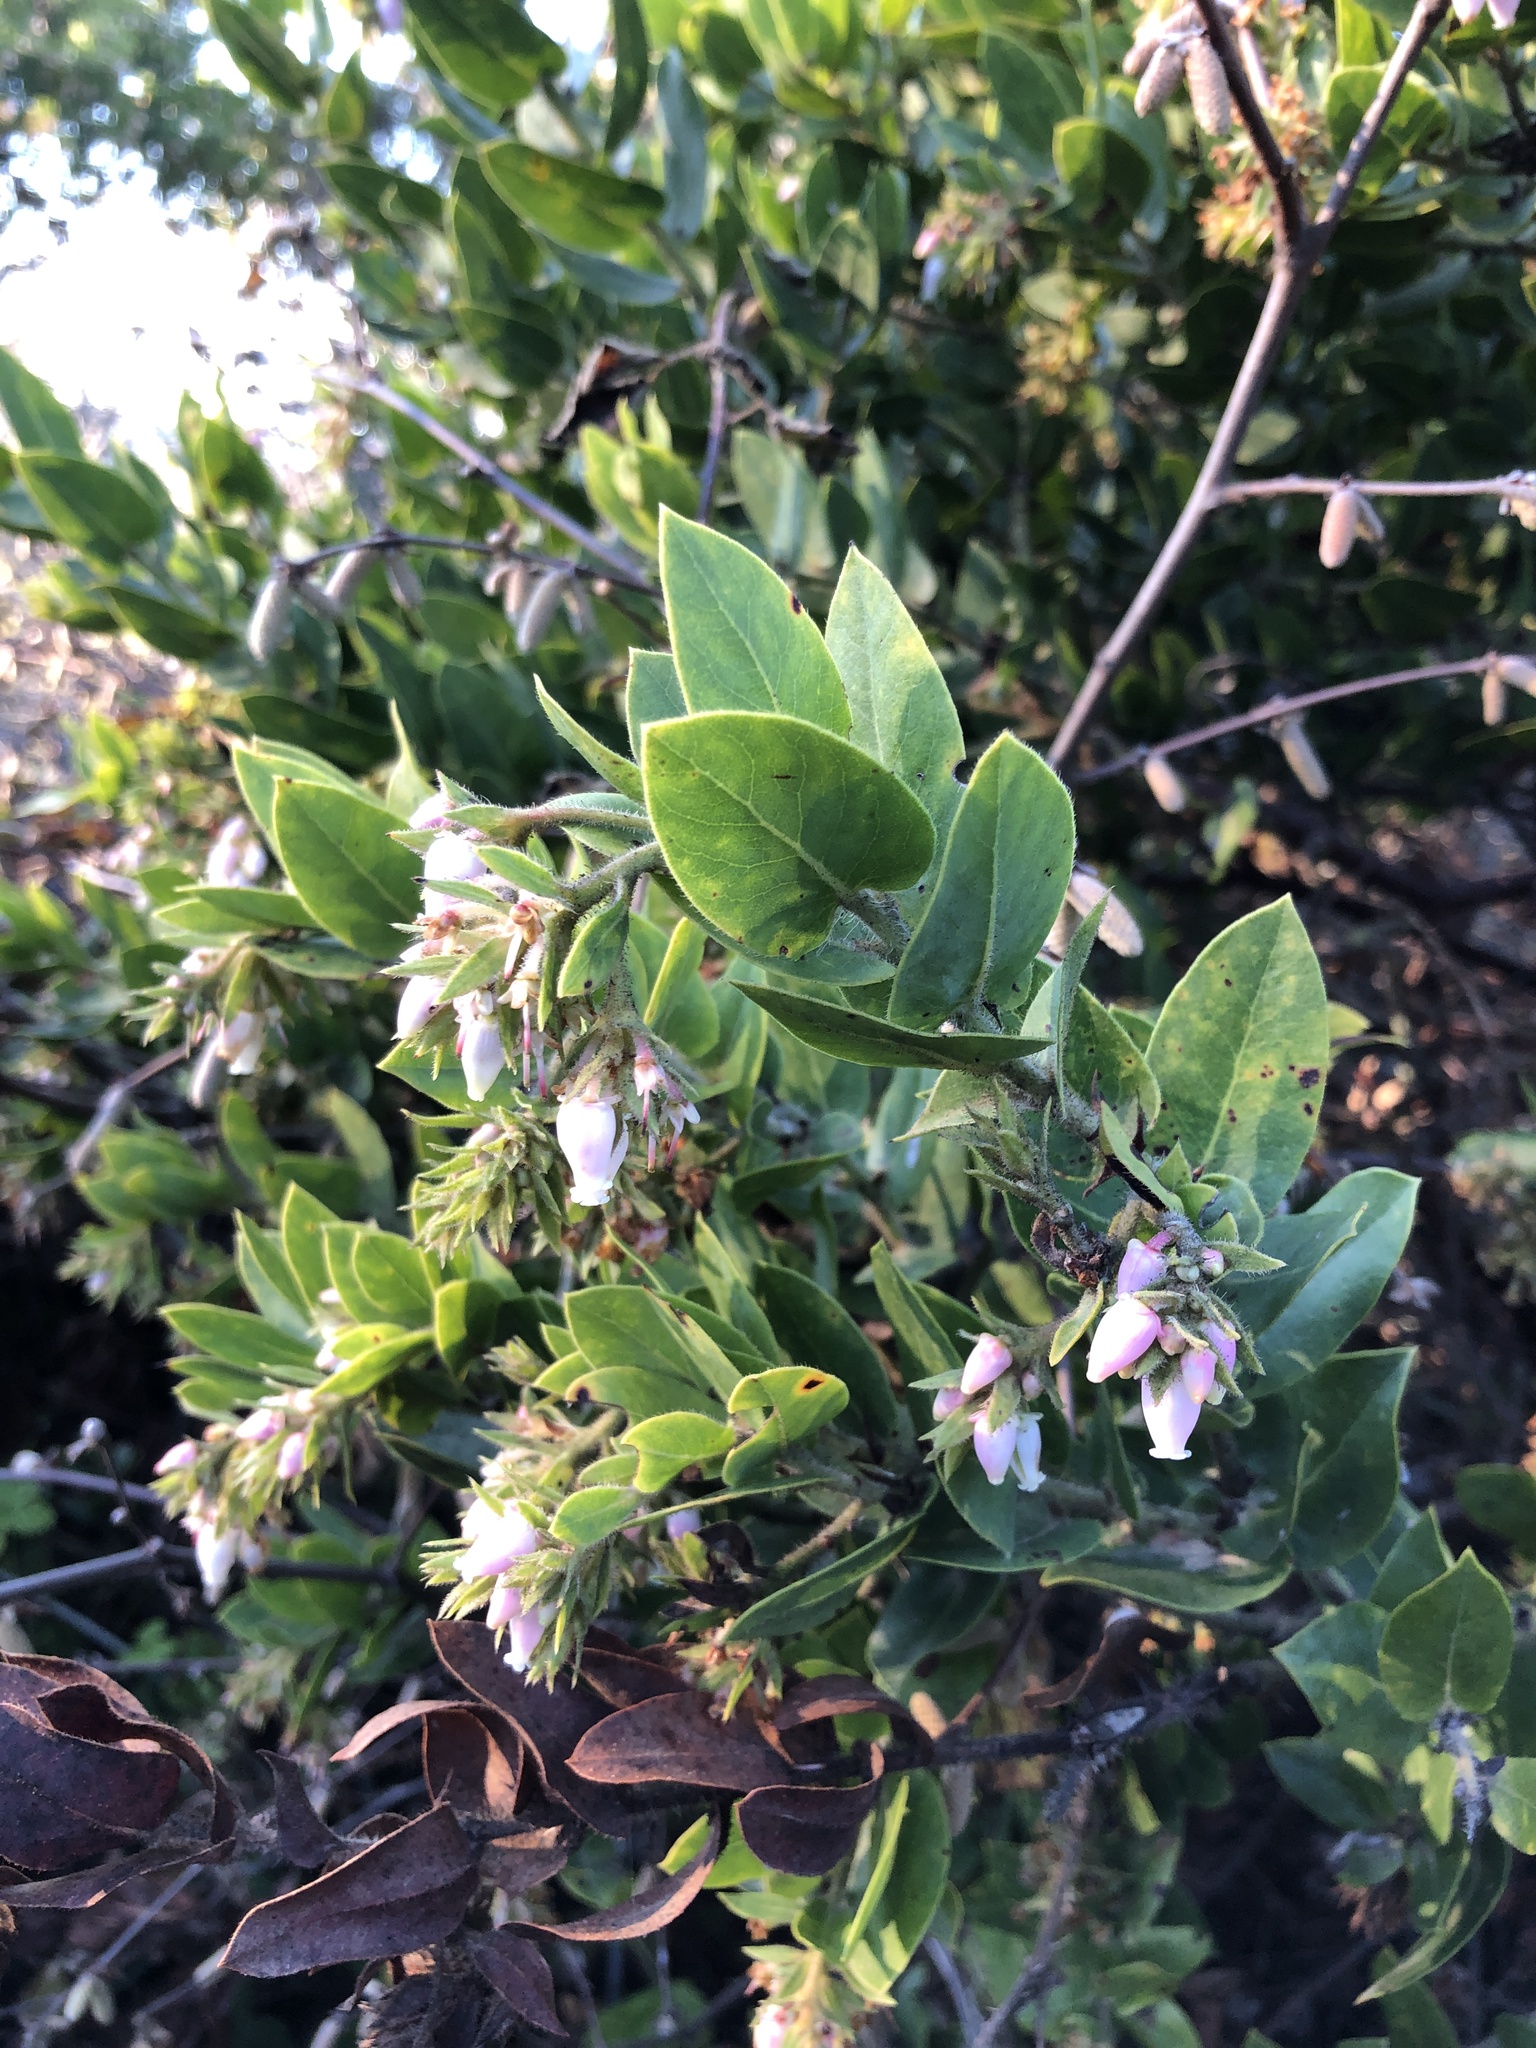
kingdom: Plantae
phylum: Tracheophyta
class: Magnoliopsida
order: Ericales
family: Ericaceae
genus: Arctostaphylos
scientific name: Arctostaphylos montaraensis
